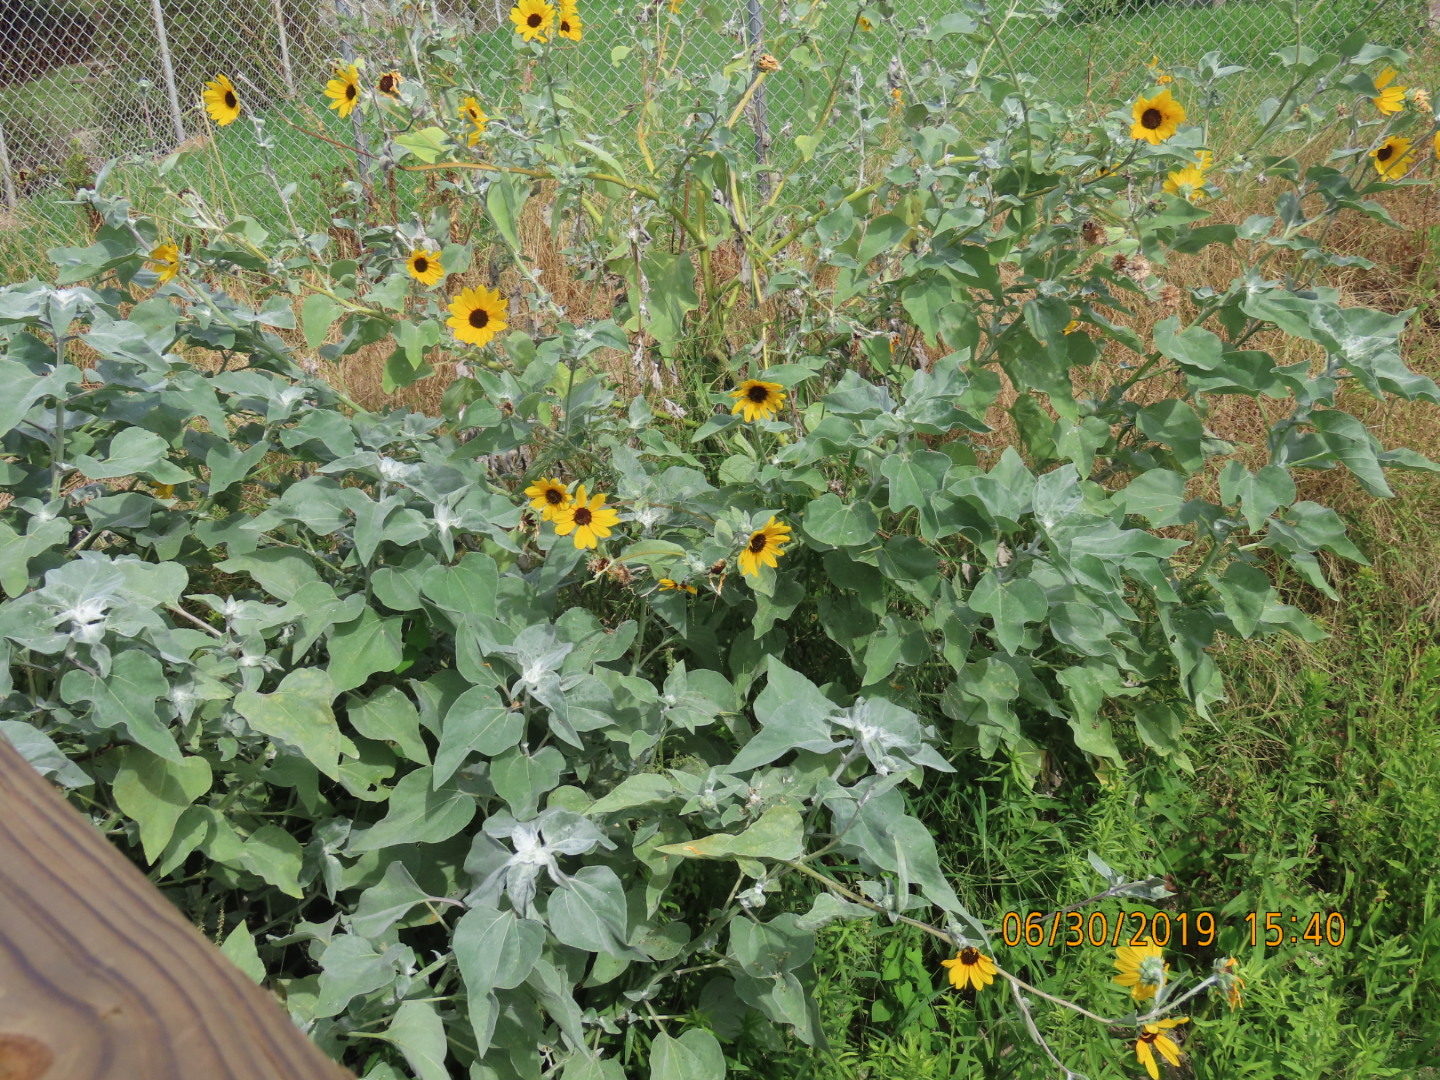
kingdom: Plantae
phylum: Tracheophyta
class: Magnoliopsida
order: Asterales
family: Asteraceae
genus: Helianthus
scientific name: Helianthus argophyllus
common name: Silverleaf sunflower
